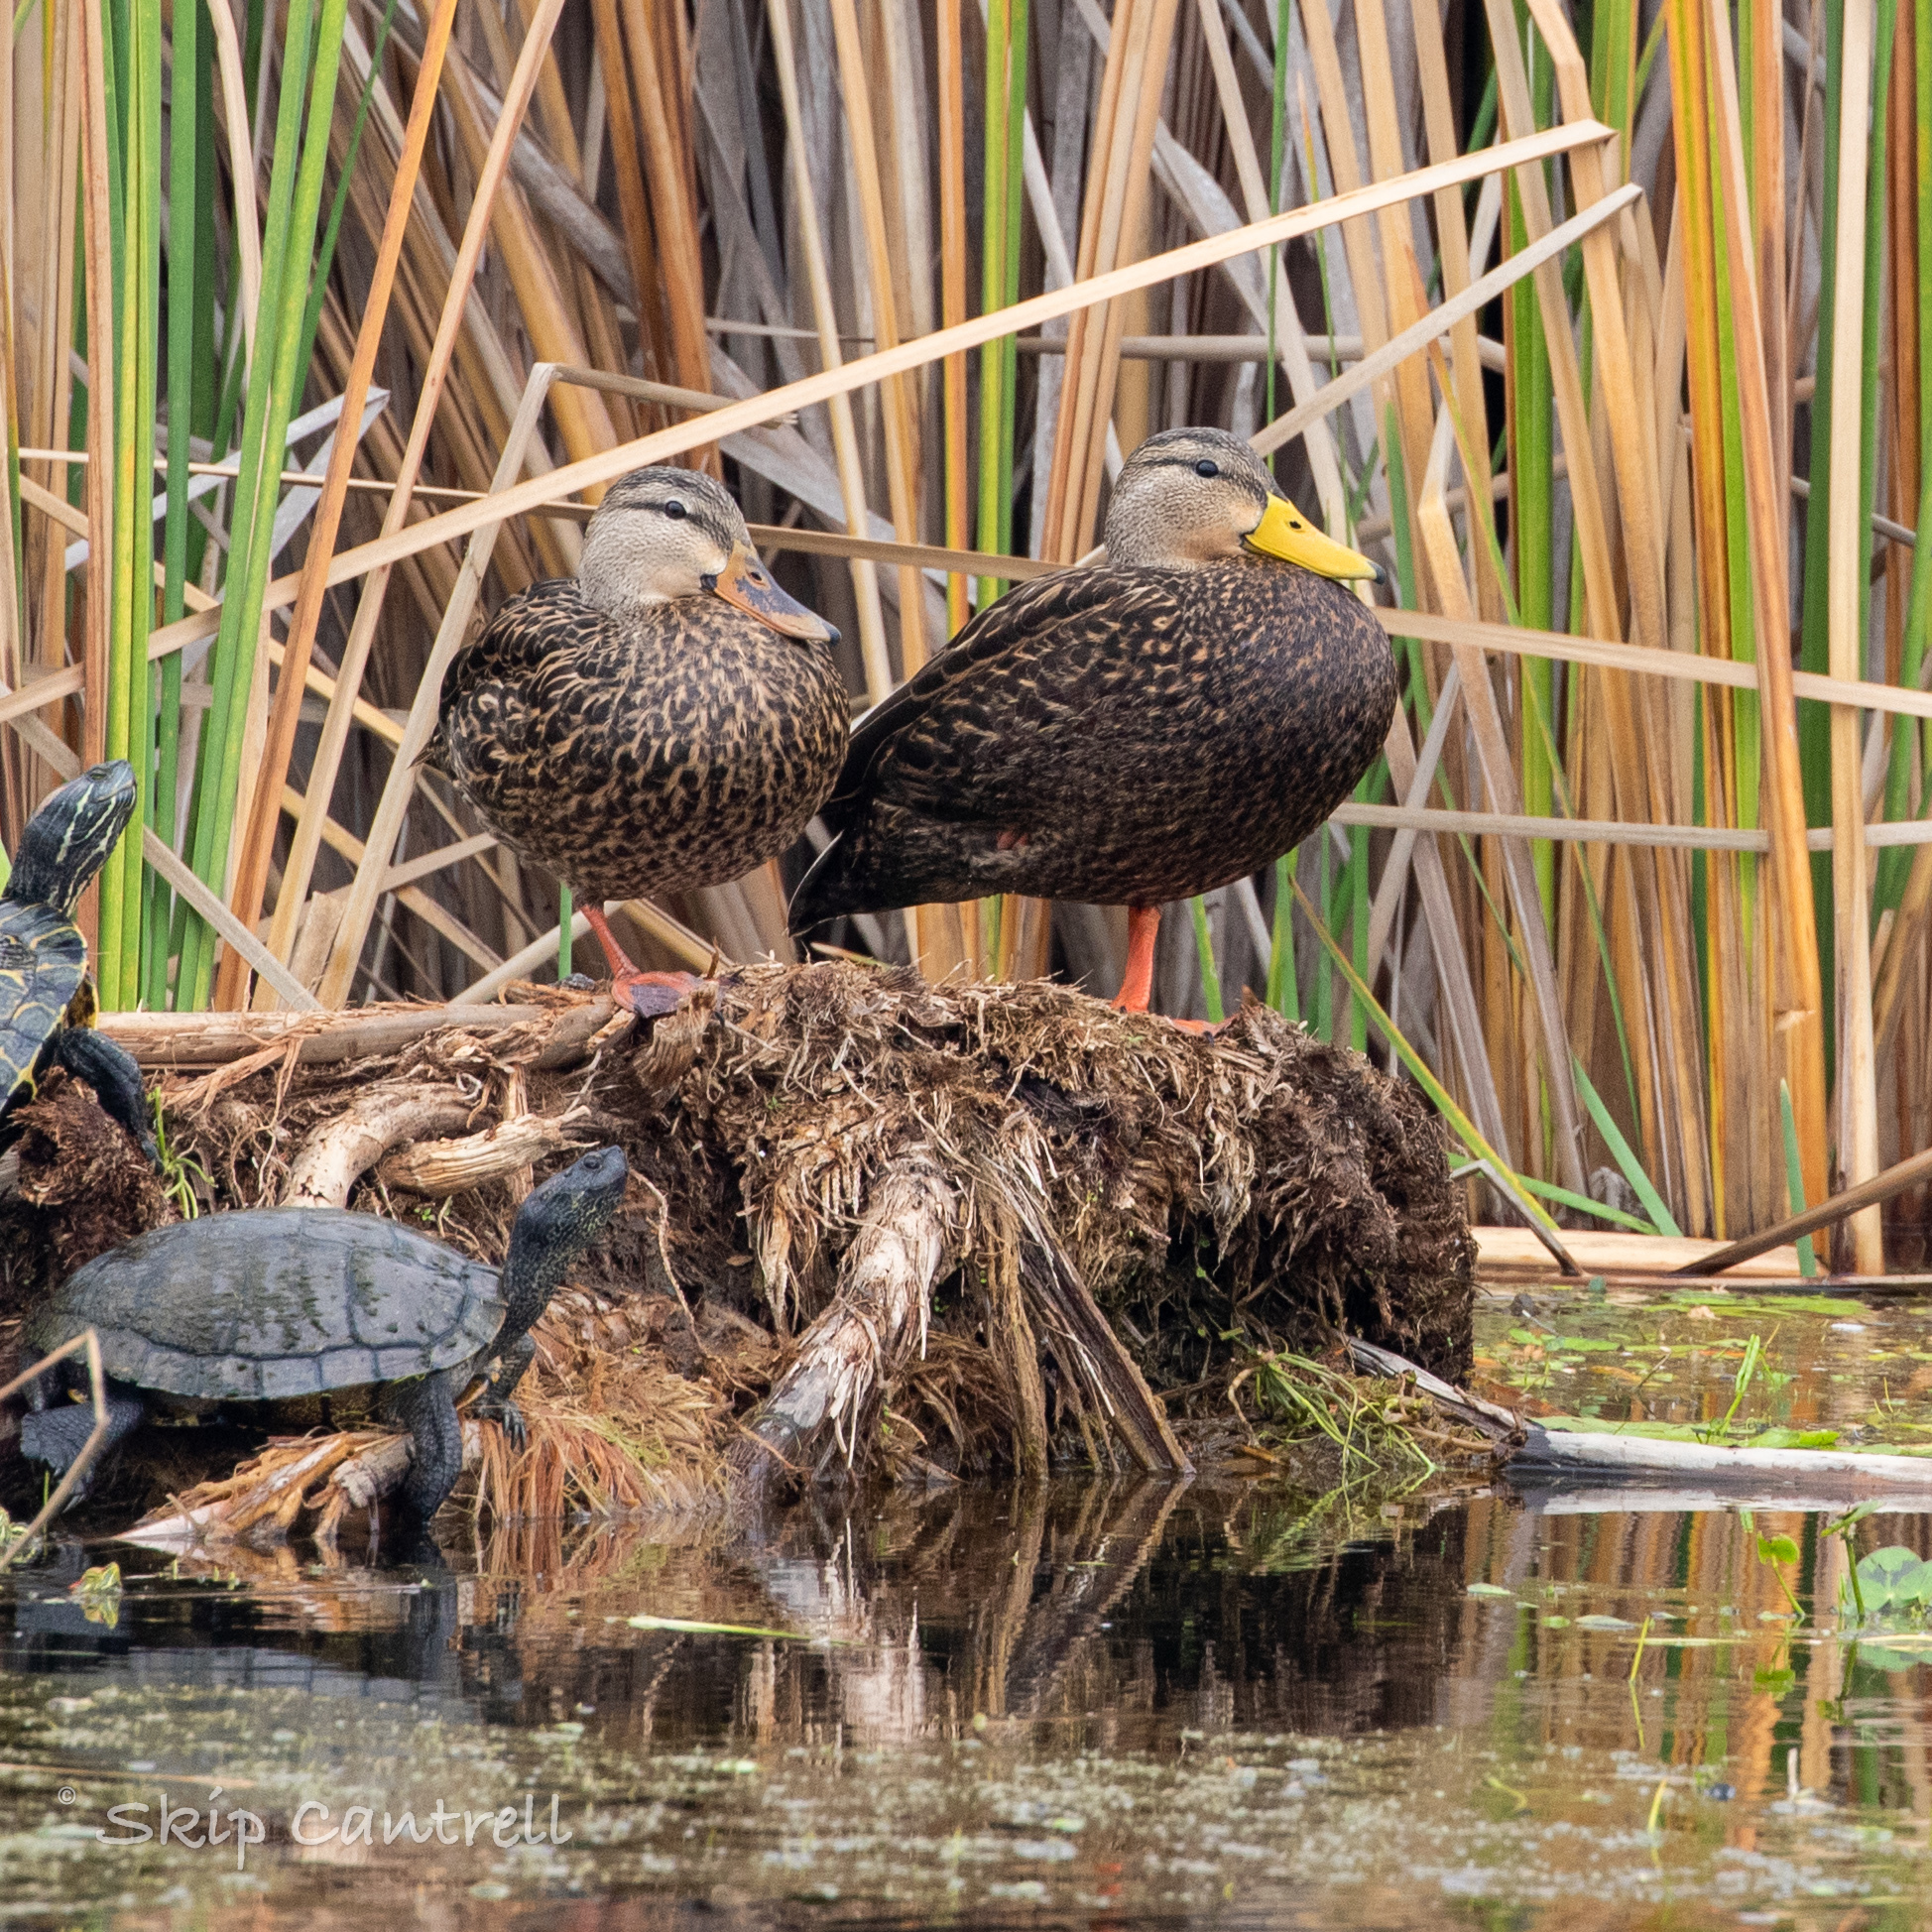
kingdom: Animalia
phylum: Chordata
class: Aves
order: Anseriformes
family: Anatidae
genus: Anas
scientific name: Anas fulvigula
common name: Mottled duck
